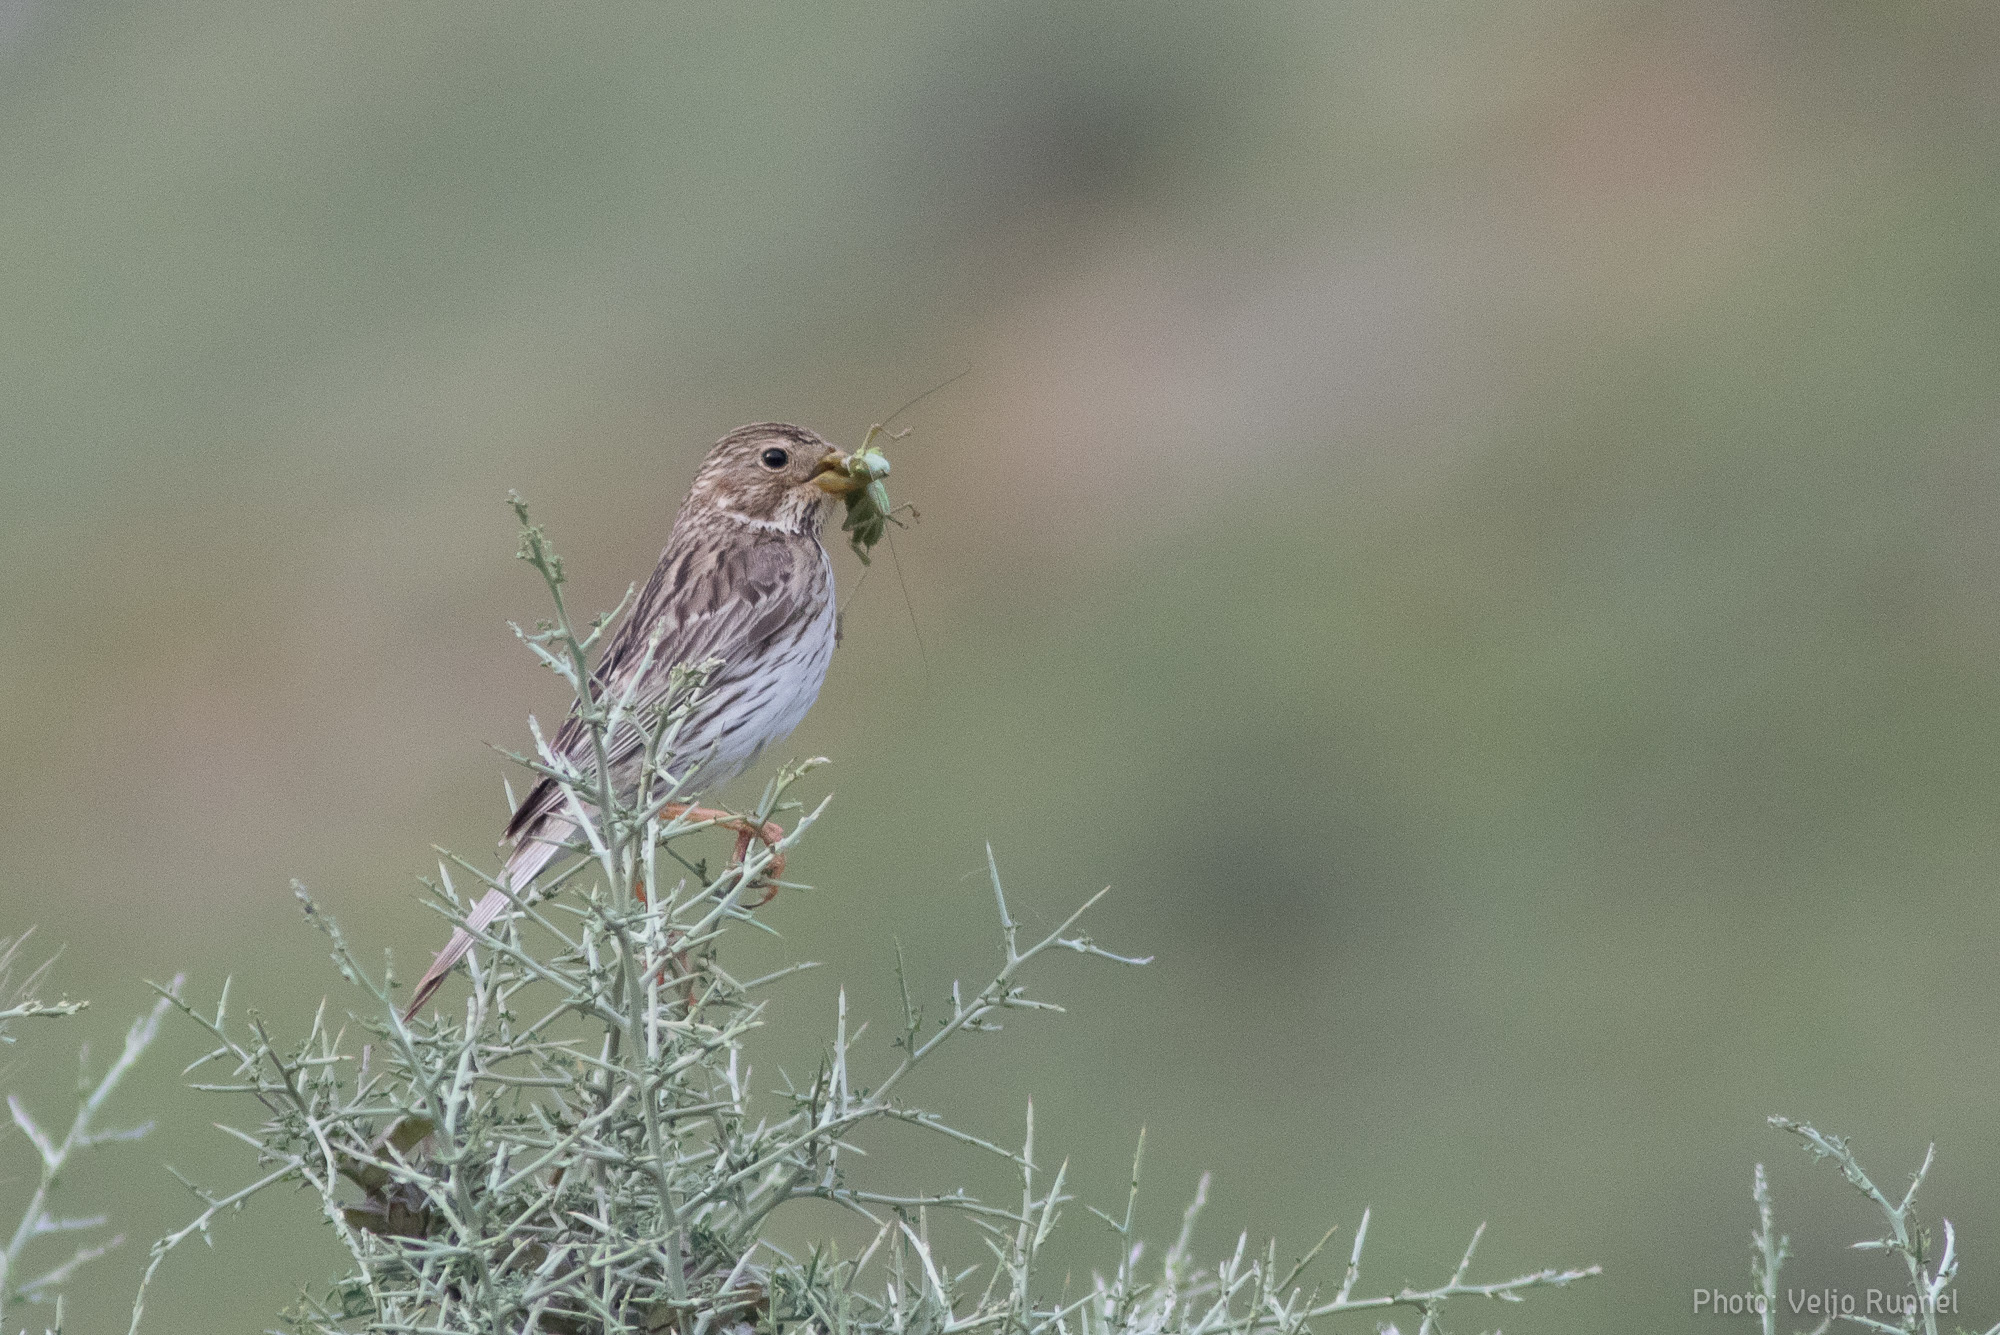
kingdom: Animalia
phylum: Chordata
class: Aves
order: Passeriformes
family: Emberizidae
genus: Emberiza
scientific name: Emberiza calandra
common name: Corn bunting
